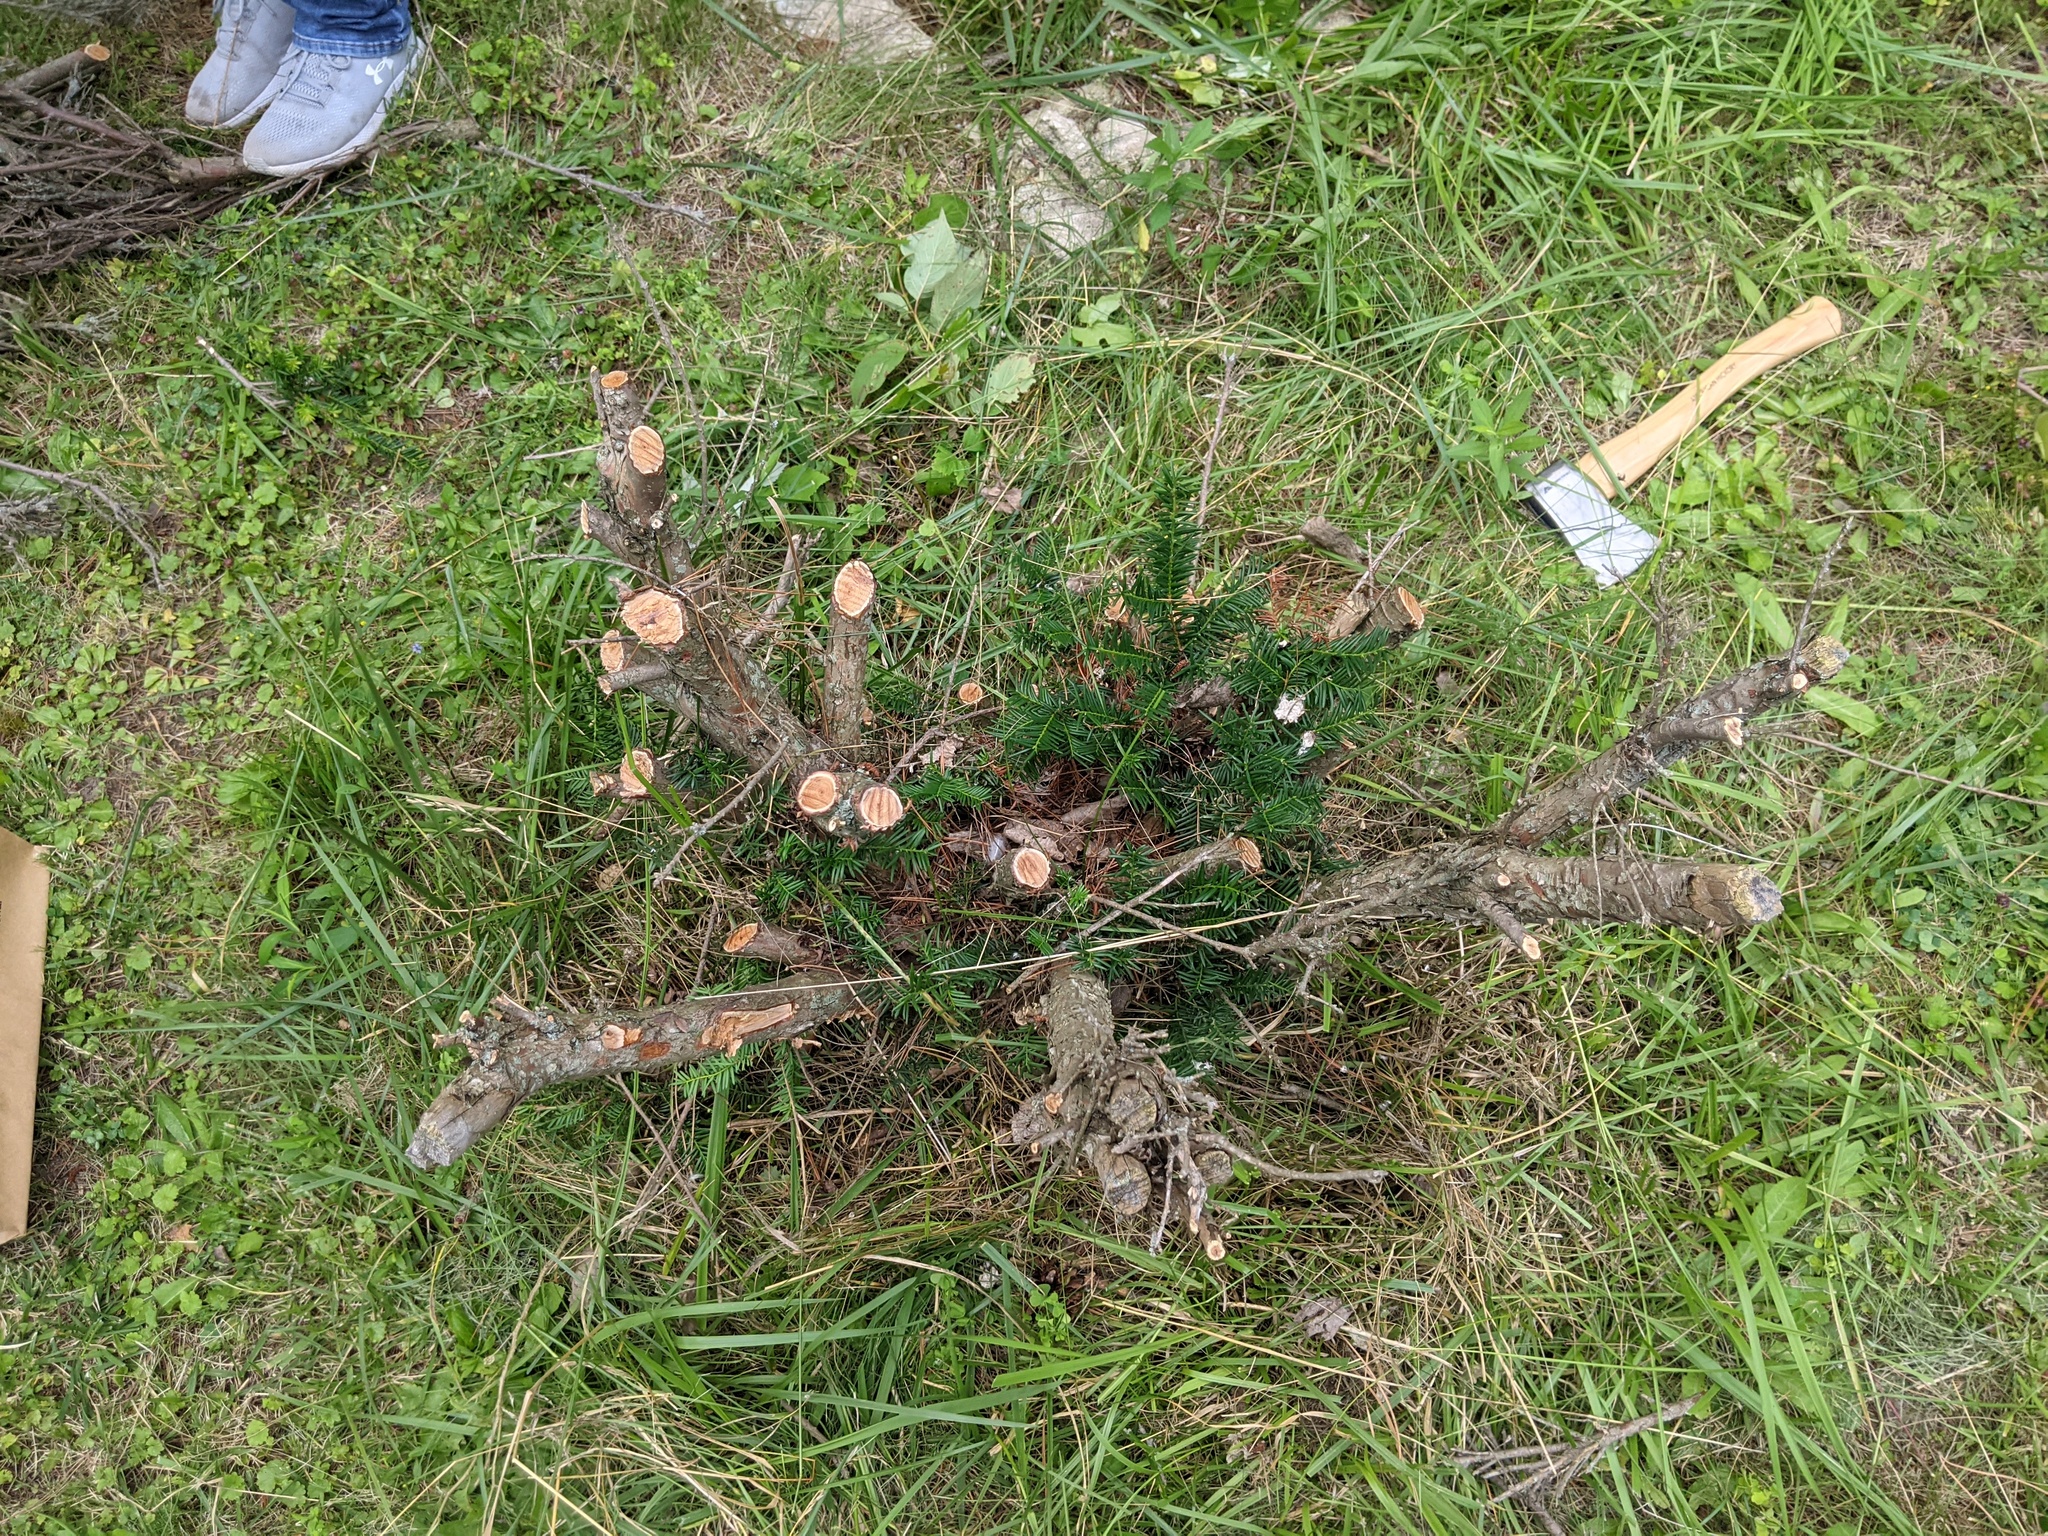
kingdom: Plantae
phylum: Tracheophyta
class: Pinopsida
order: Pinales
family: Taxaceae
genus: Taxus
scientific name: Taxus canadensis
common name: American yew
